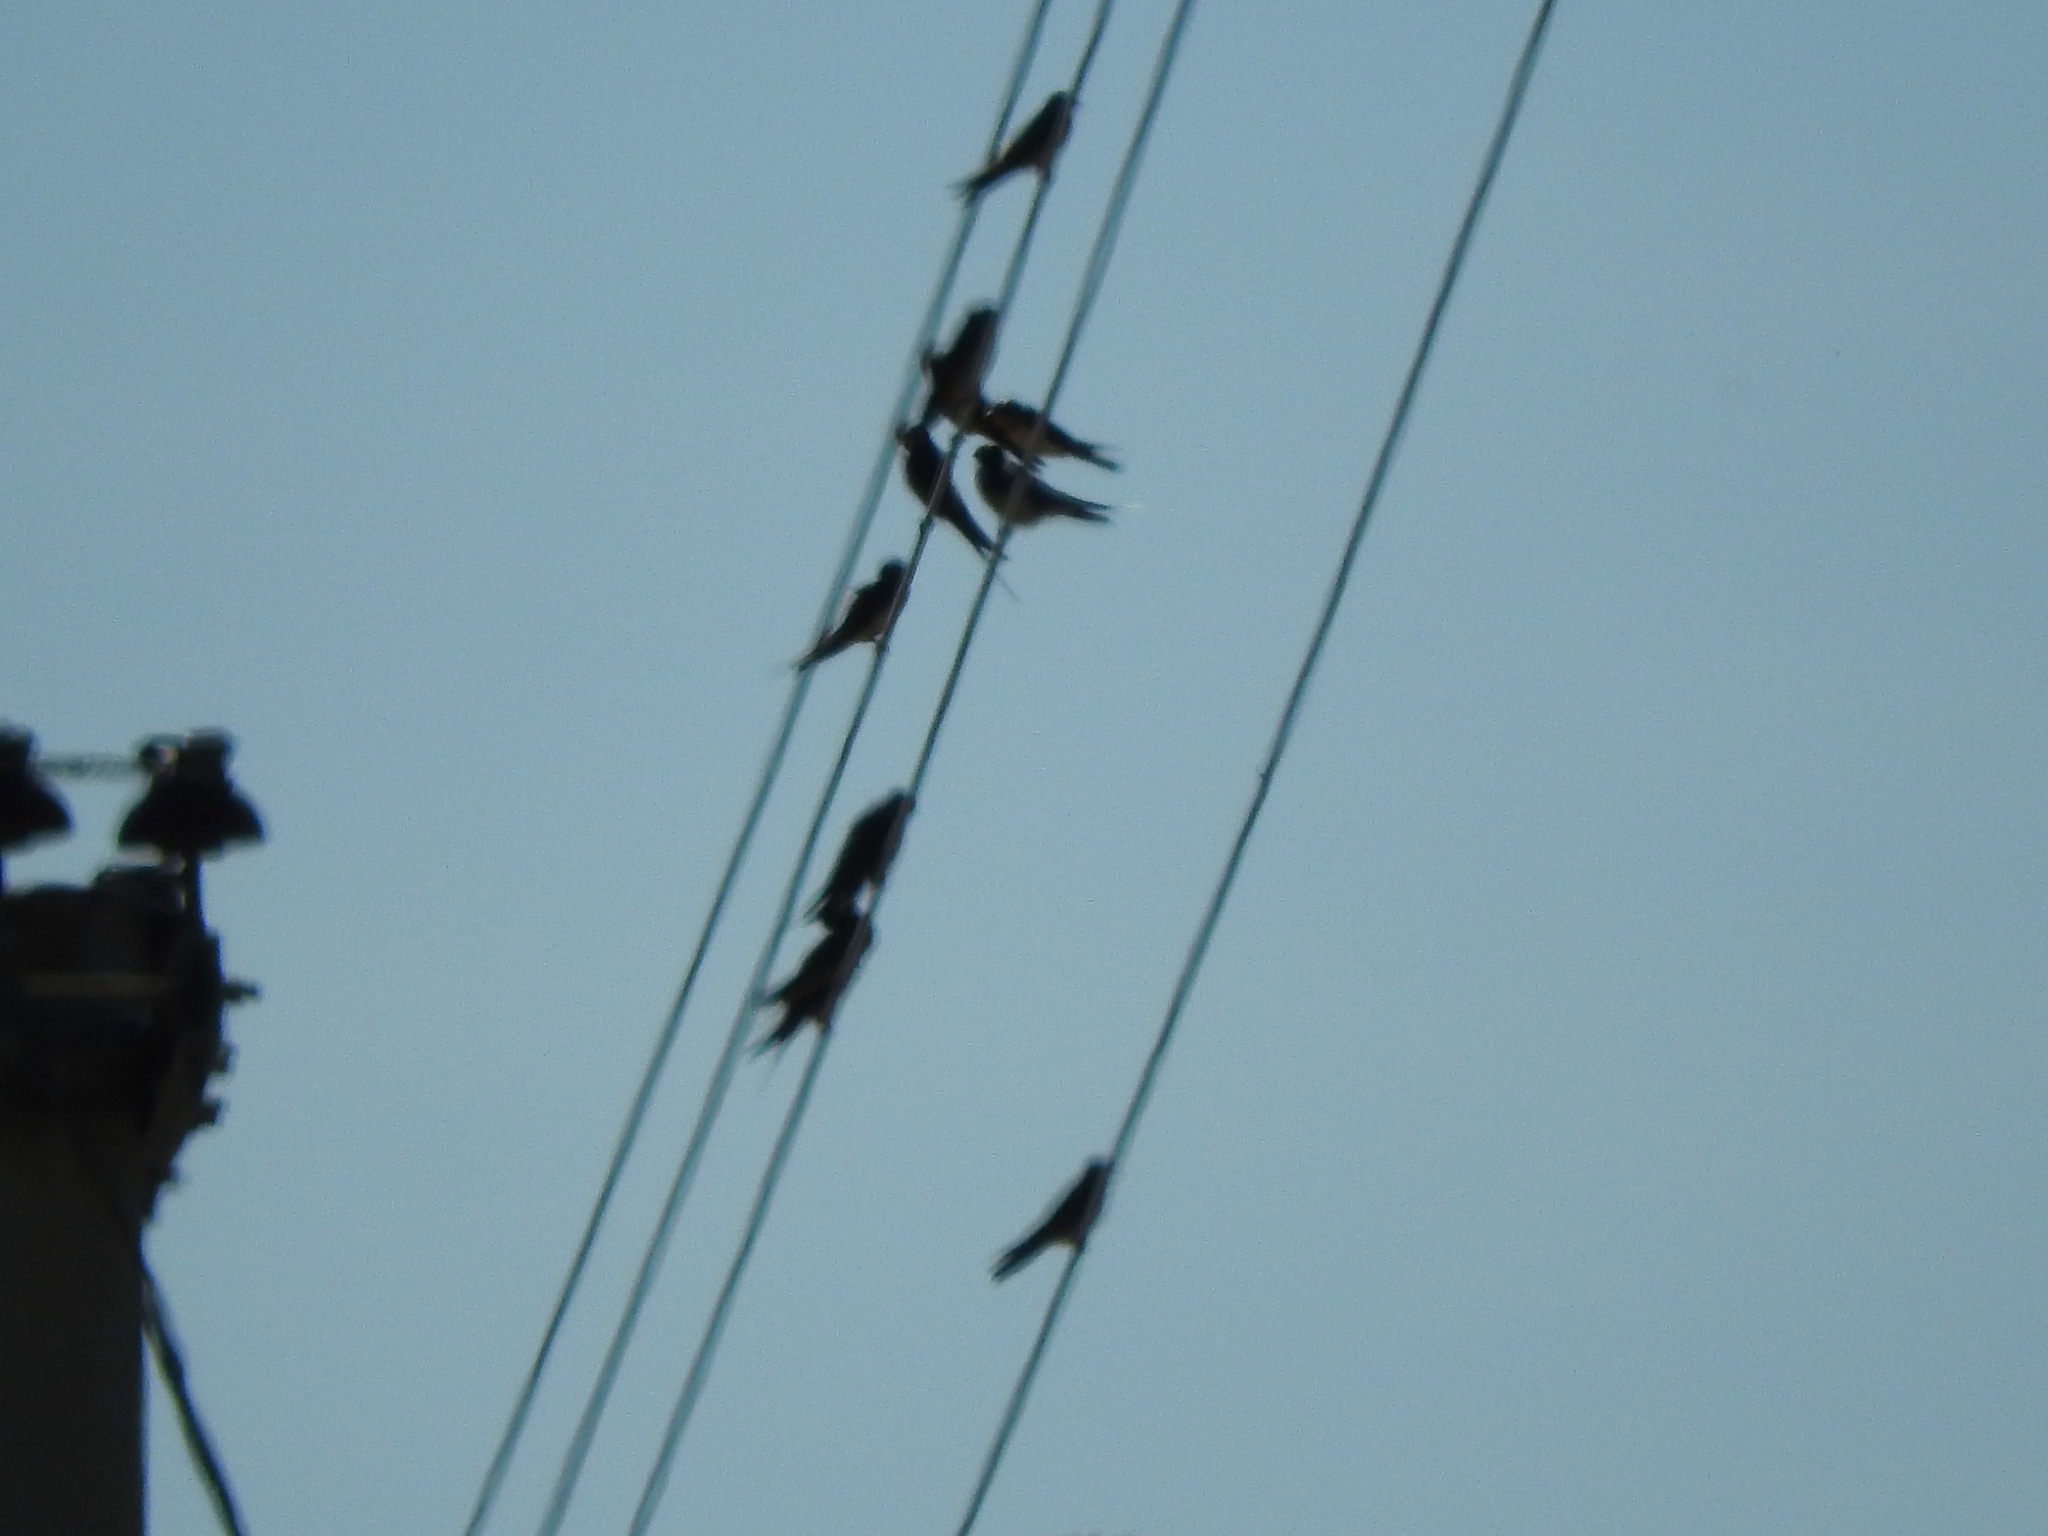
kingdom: Animalia
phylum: Chordata
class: Aves
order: Passeriformes
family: Hirundinidae
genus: Hirundo
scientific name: Hirundo rustica
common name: Barn swallow
